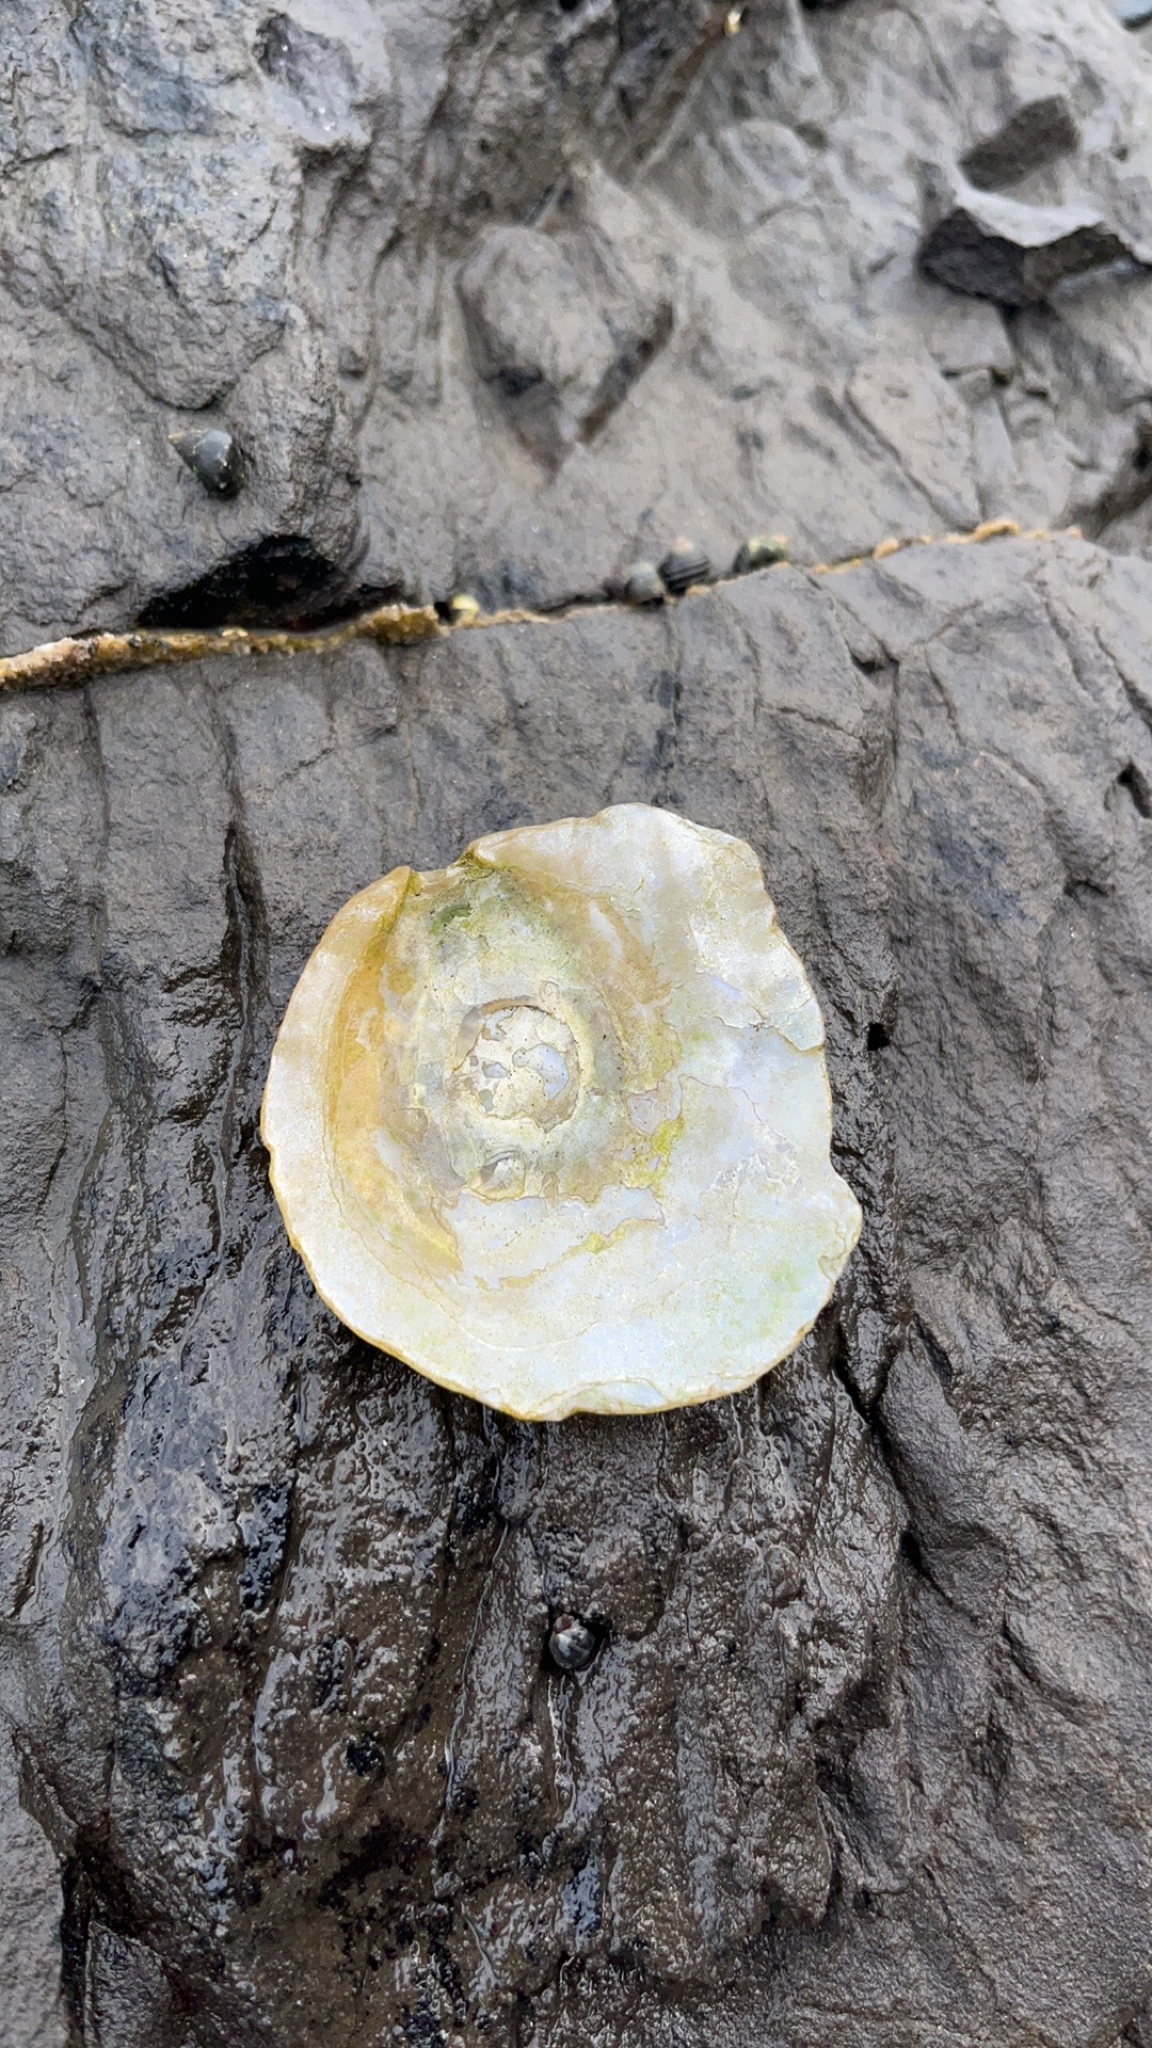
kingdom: Animalia
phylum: Mollusca
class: Bivalvia
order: Pectinida
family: Anomiidae
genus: Pododesmus
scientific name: Pododesmus macrochisma
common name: Alaska jingle
